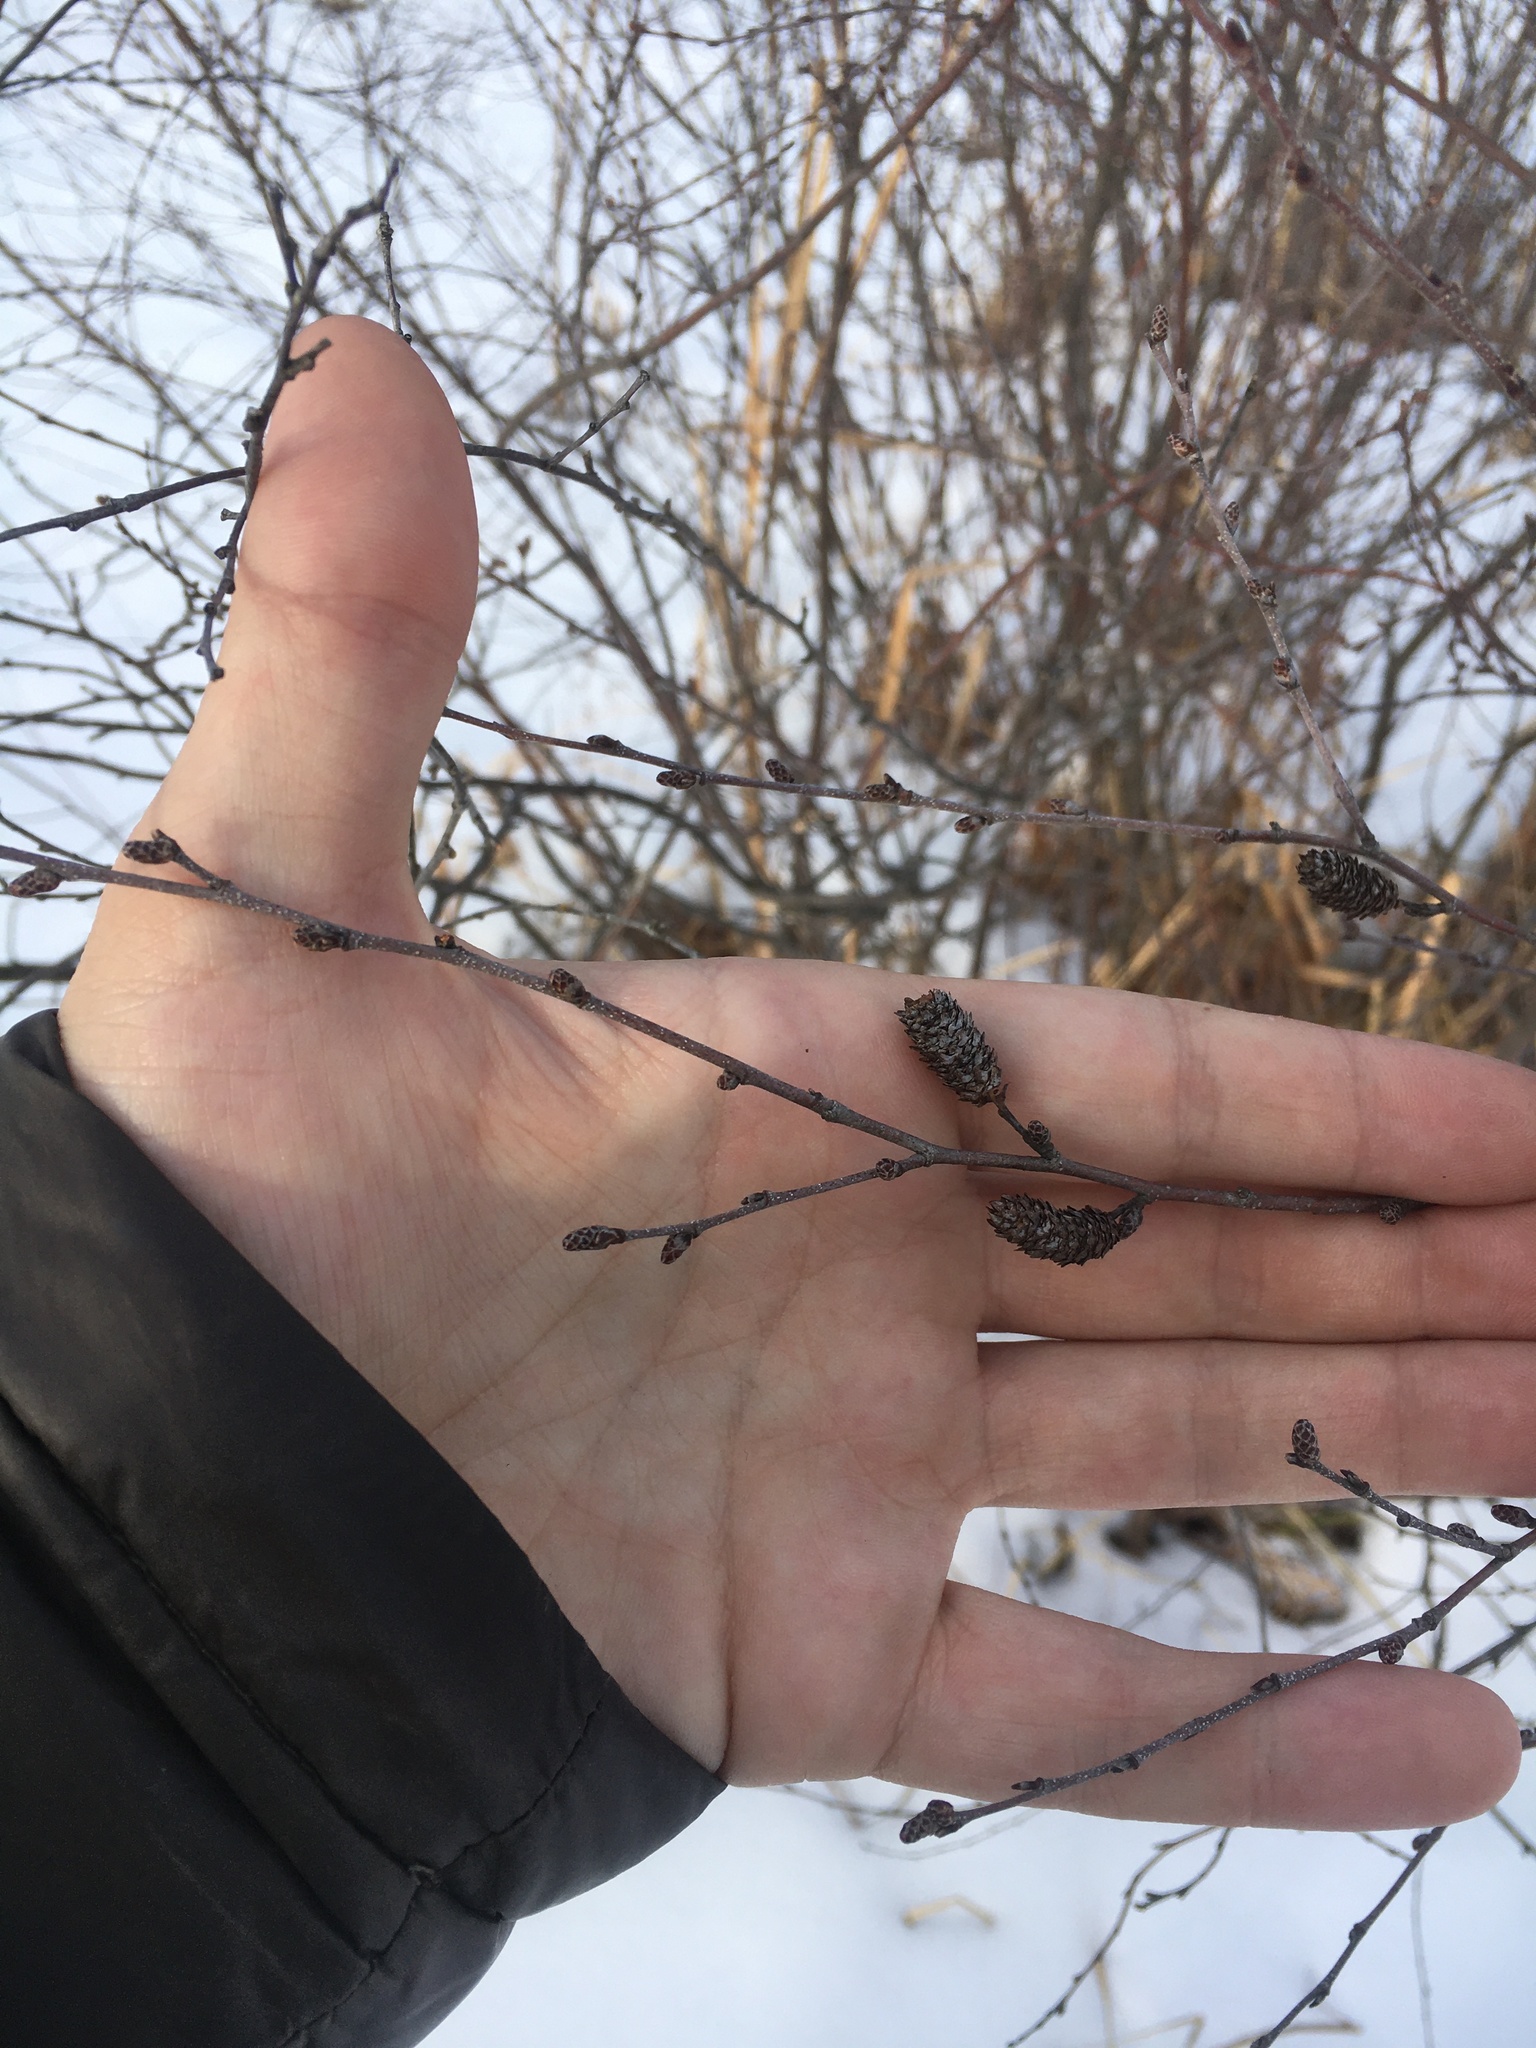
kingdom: Plantae
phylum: Tracheophyta
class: Magnoliopsida
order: Fagales
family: Betulaceae
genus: Betula
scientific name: Betula pumila
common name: Bog birch
